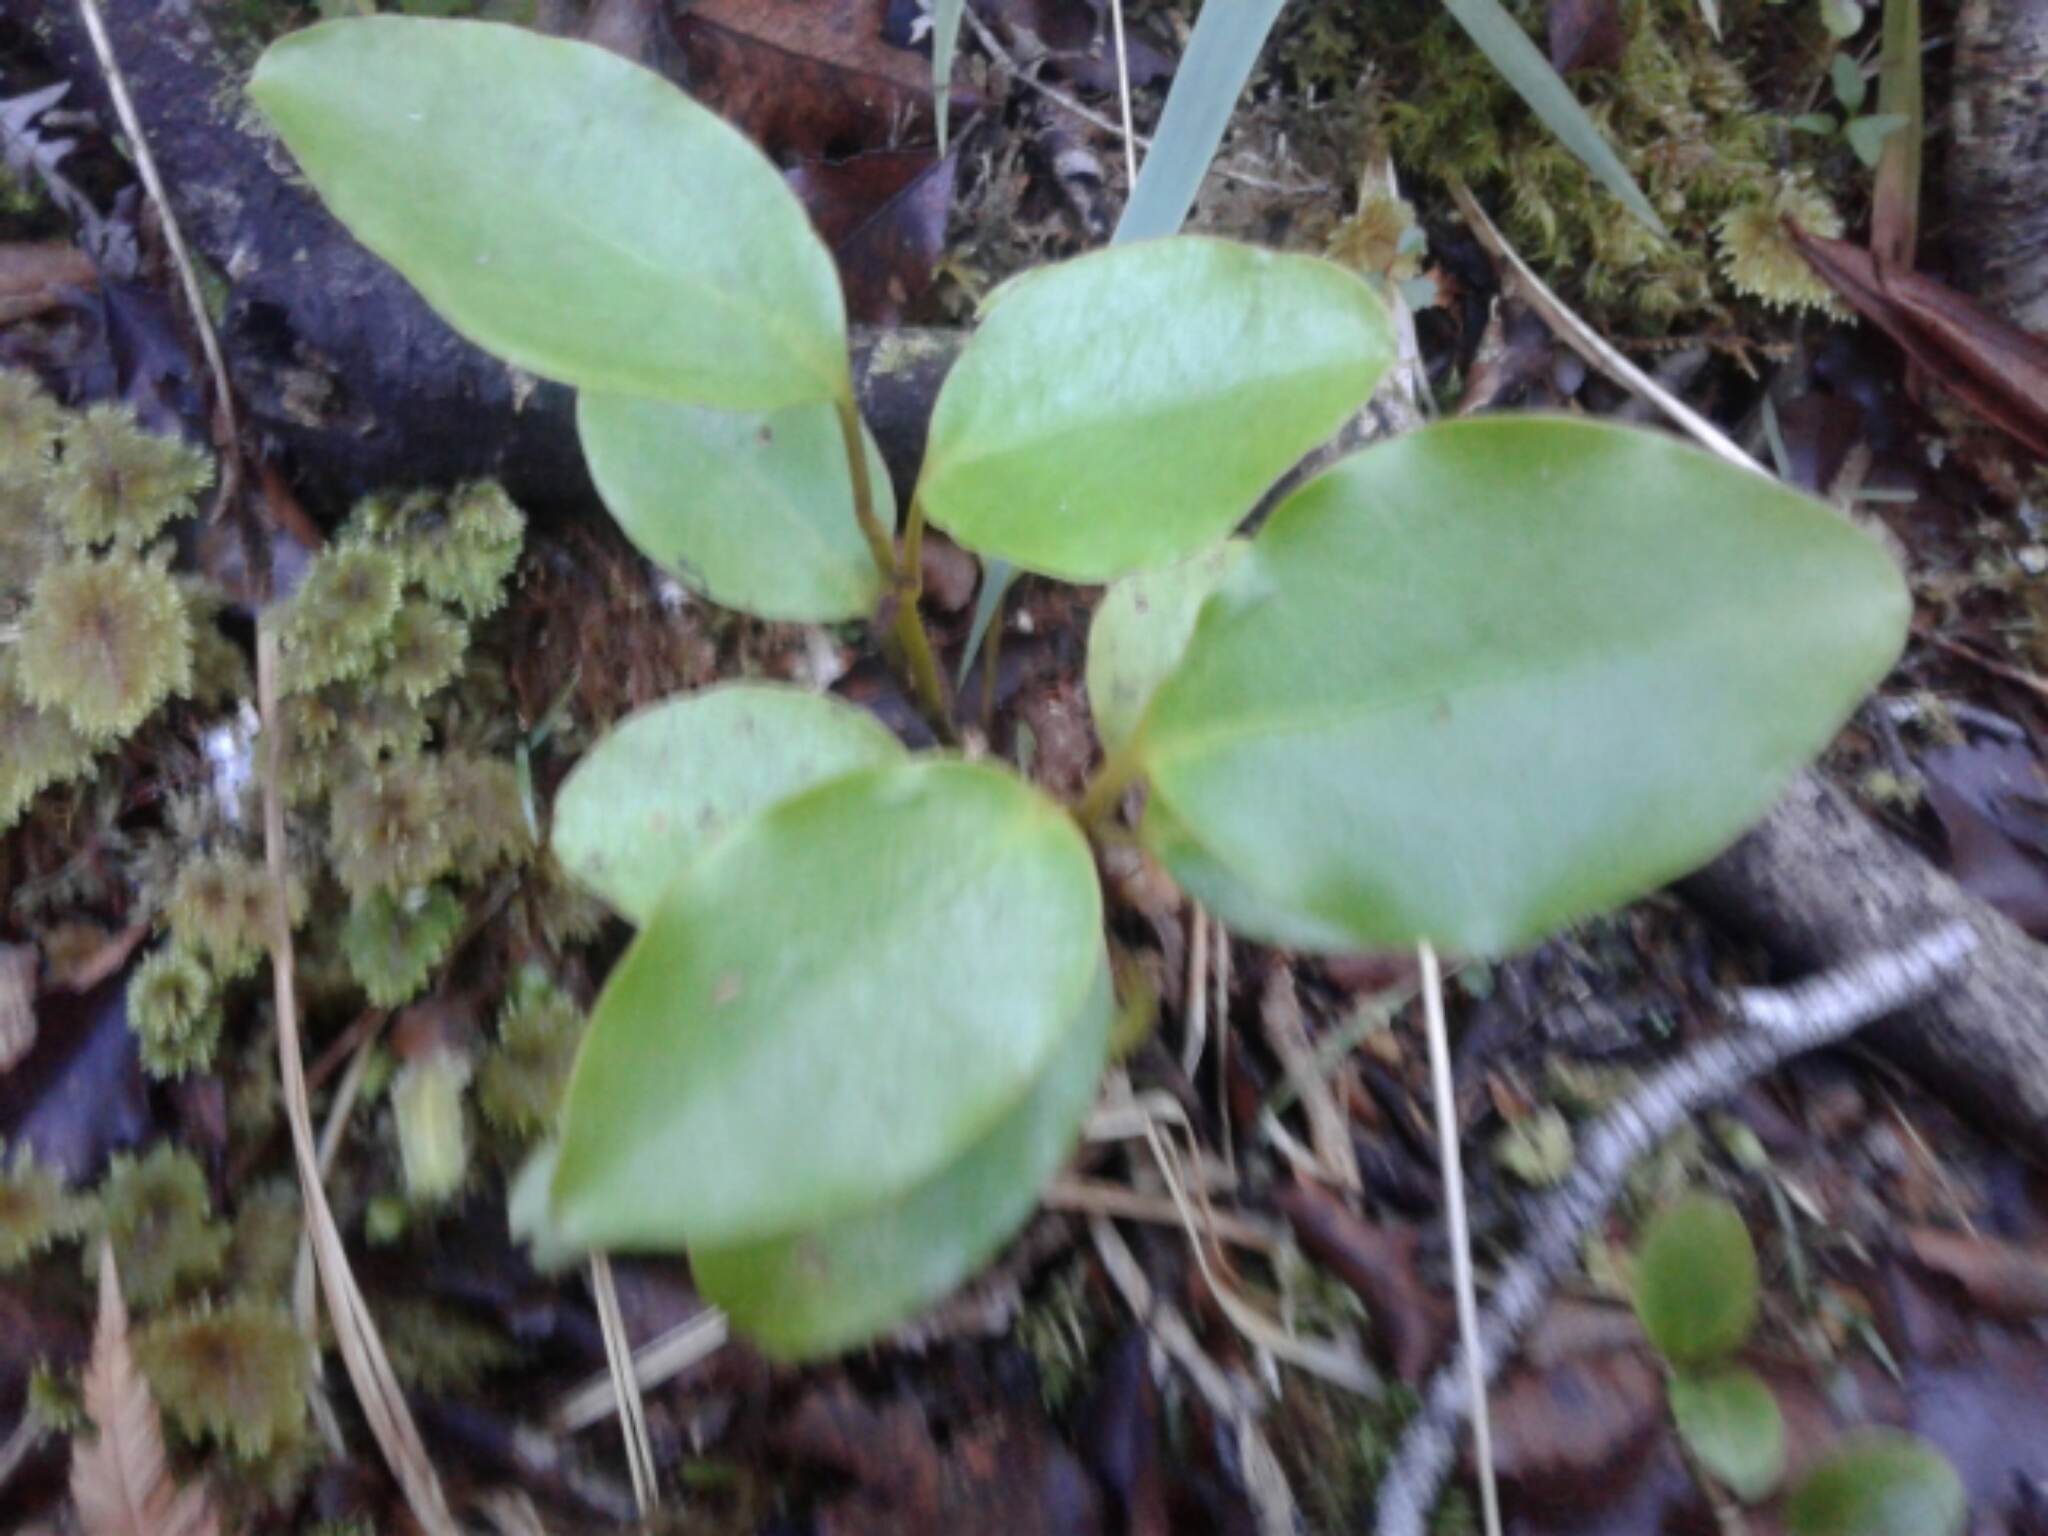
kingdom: Plantae
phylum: Tracheophyta
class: Magnoliopsida
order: Apiales
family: Griseliniaceae
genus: Griselinia
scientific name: Griselinia littoralis
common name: New zealand broadleaf
